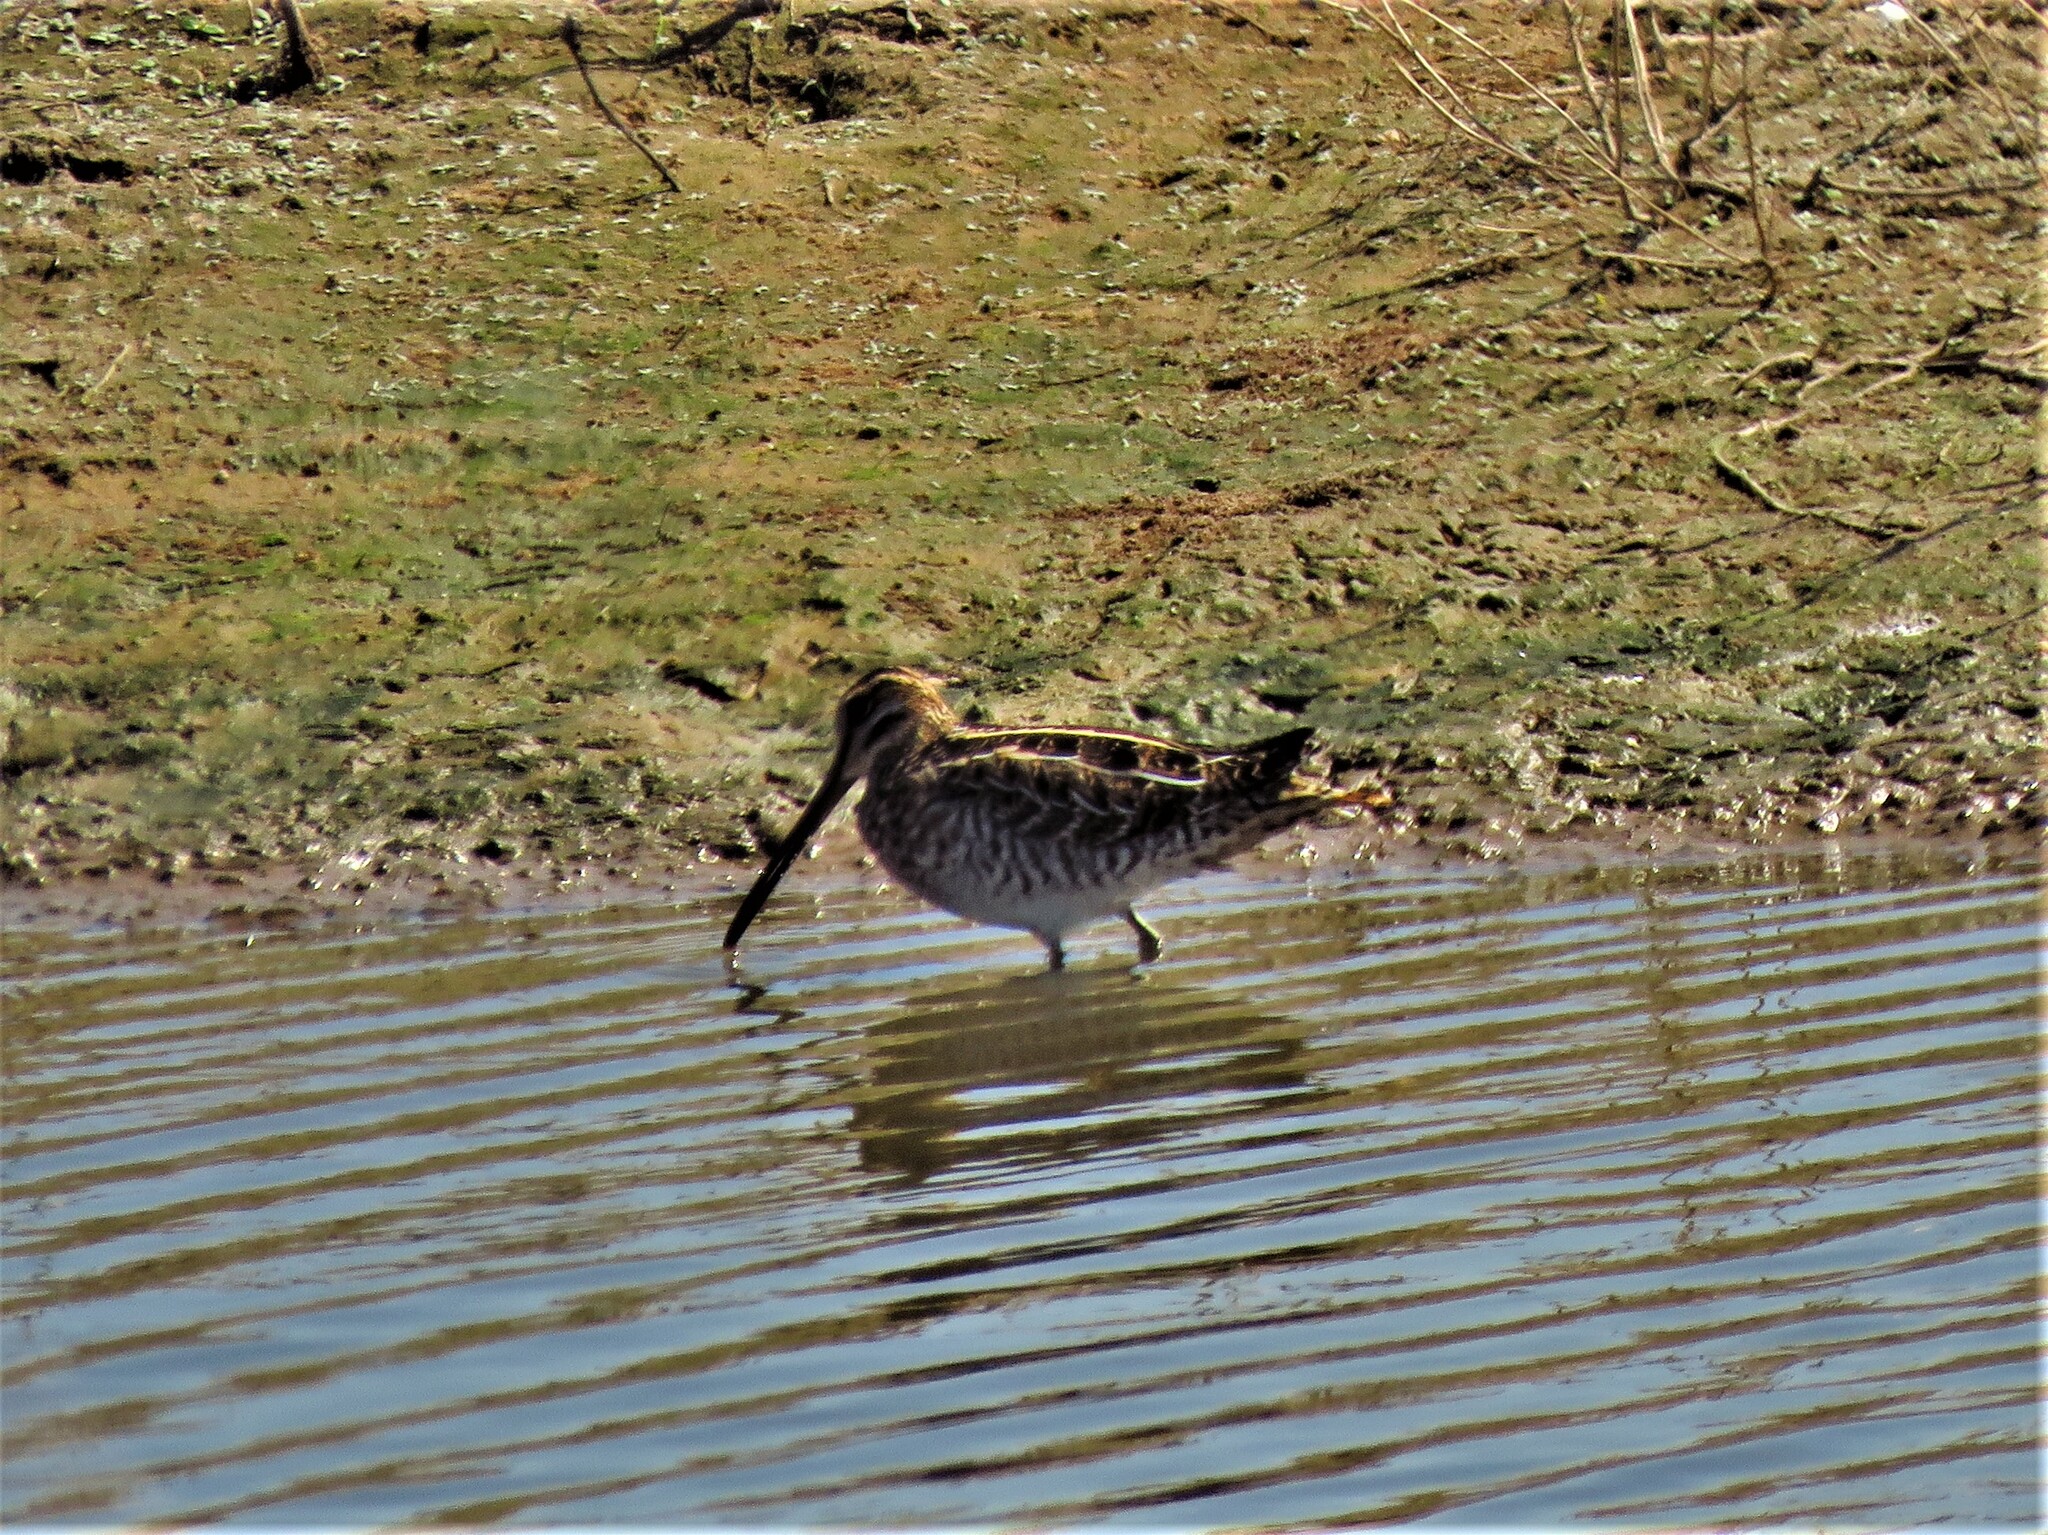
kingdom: Animalia
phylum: Chordata
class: Aves
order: Charadriiformes
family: Scolopacidae
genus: Gallinago
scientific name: Gallinago delicata
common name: Wilson's snipe
